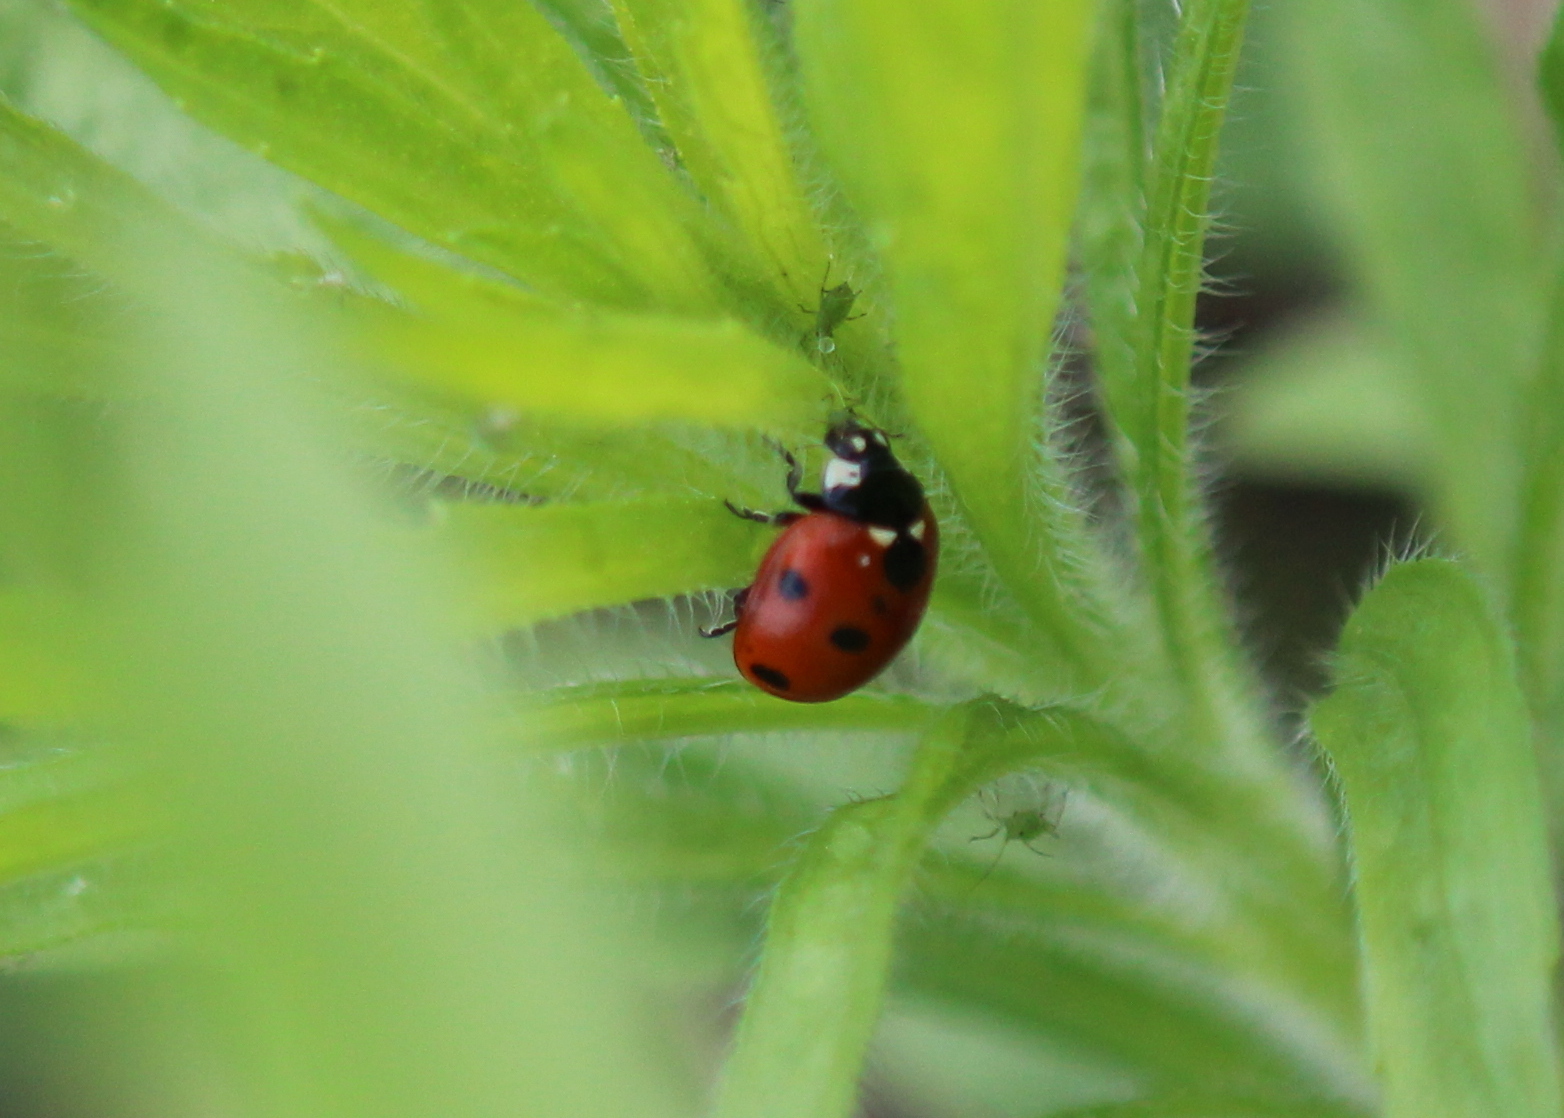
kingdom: Animalia
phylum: Arthropoda
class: Insecta
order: Coleoptera
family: Coccinellidae
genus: Coccinella
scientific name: Coccinella septempunctata
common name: Sevenspotted lady beetle
